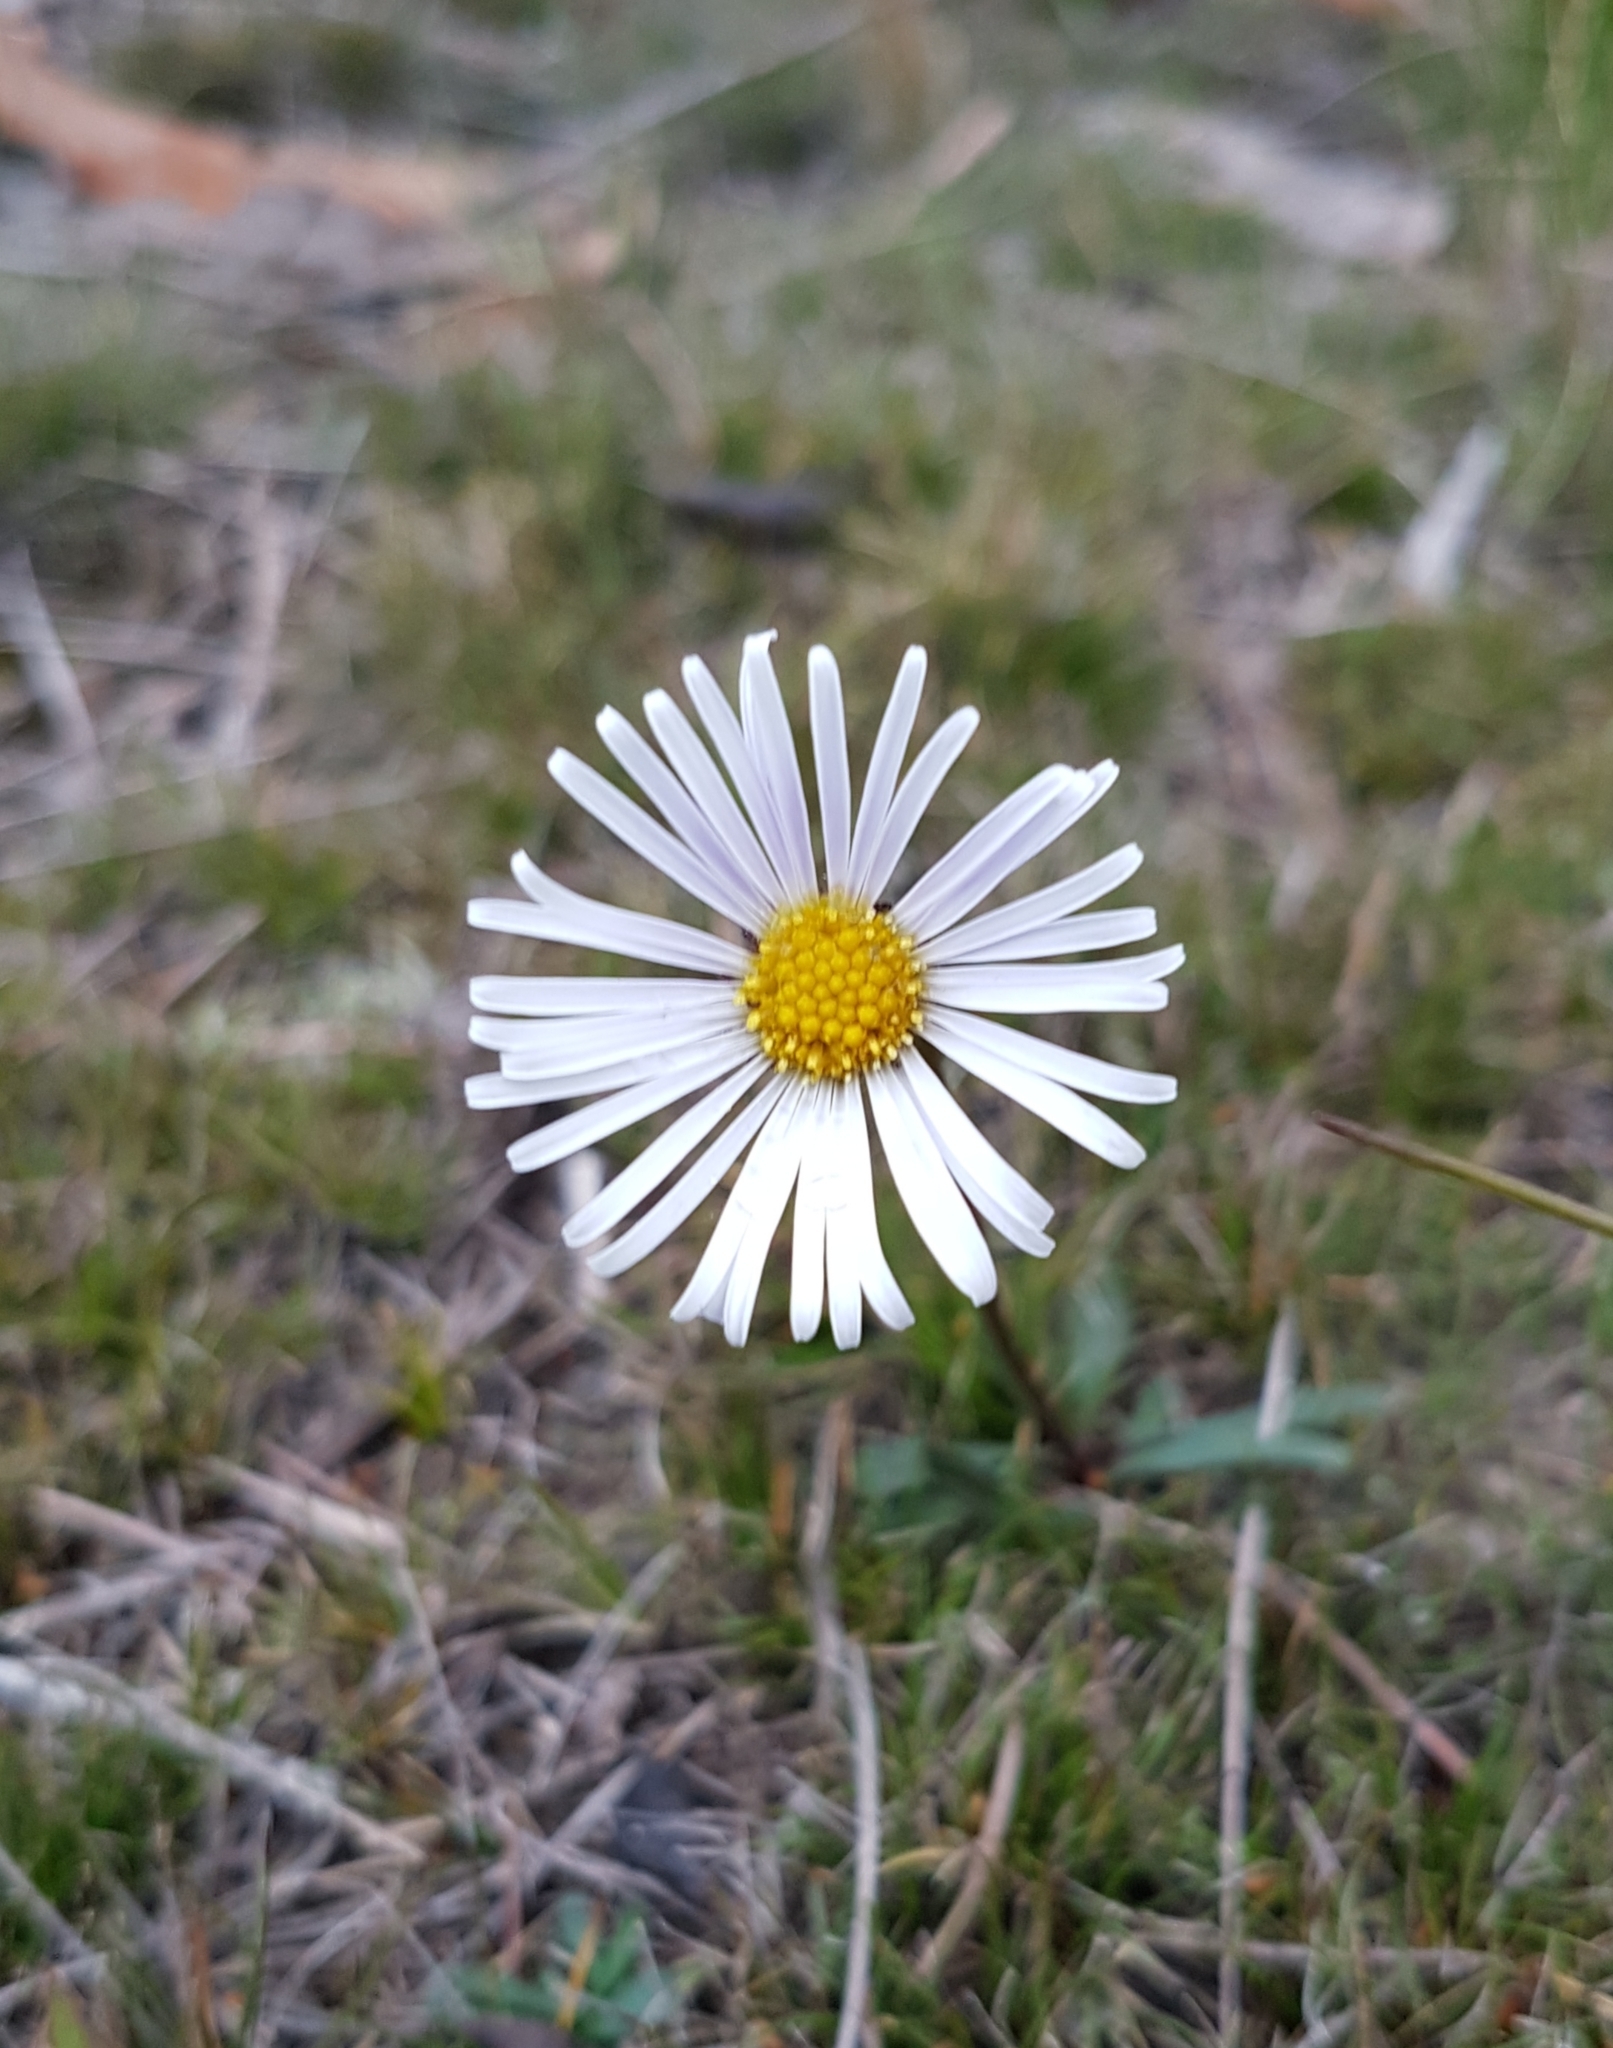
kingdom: Plantae
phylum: Tracheophyta
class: Magnoliopsida
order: Asterales
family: Asteraceae
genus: Allittia
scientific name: Allittia uliginosa
